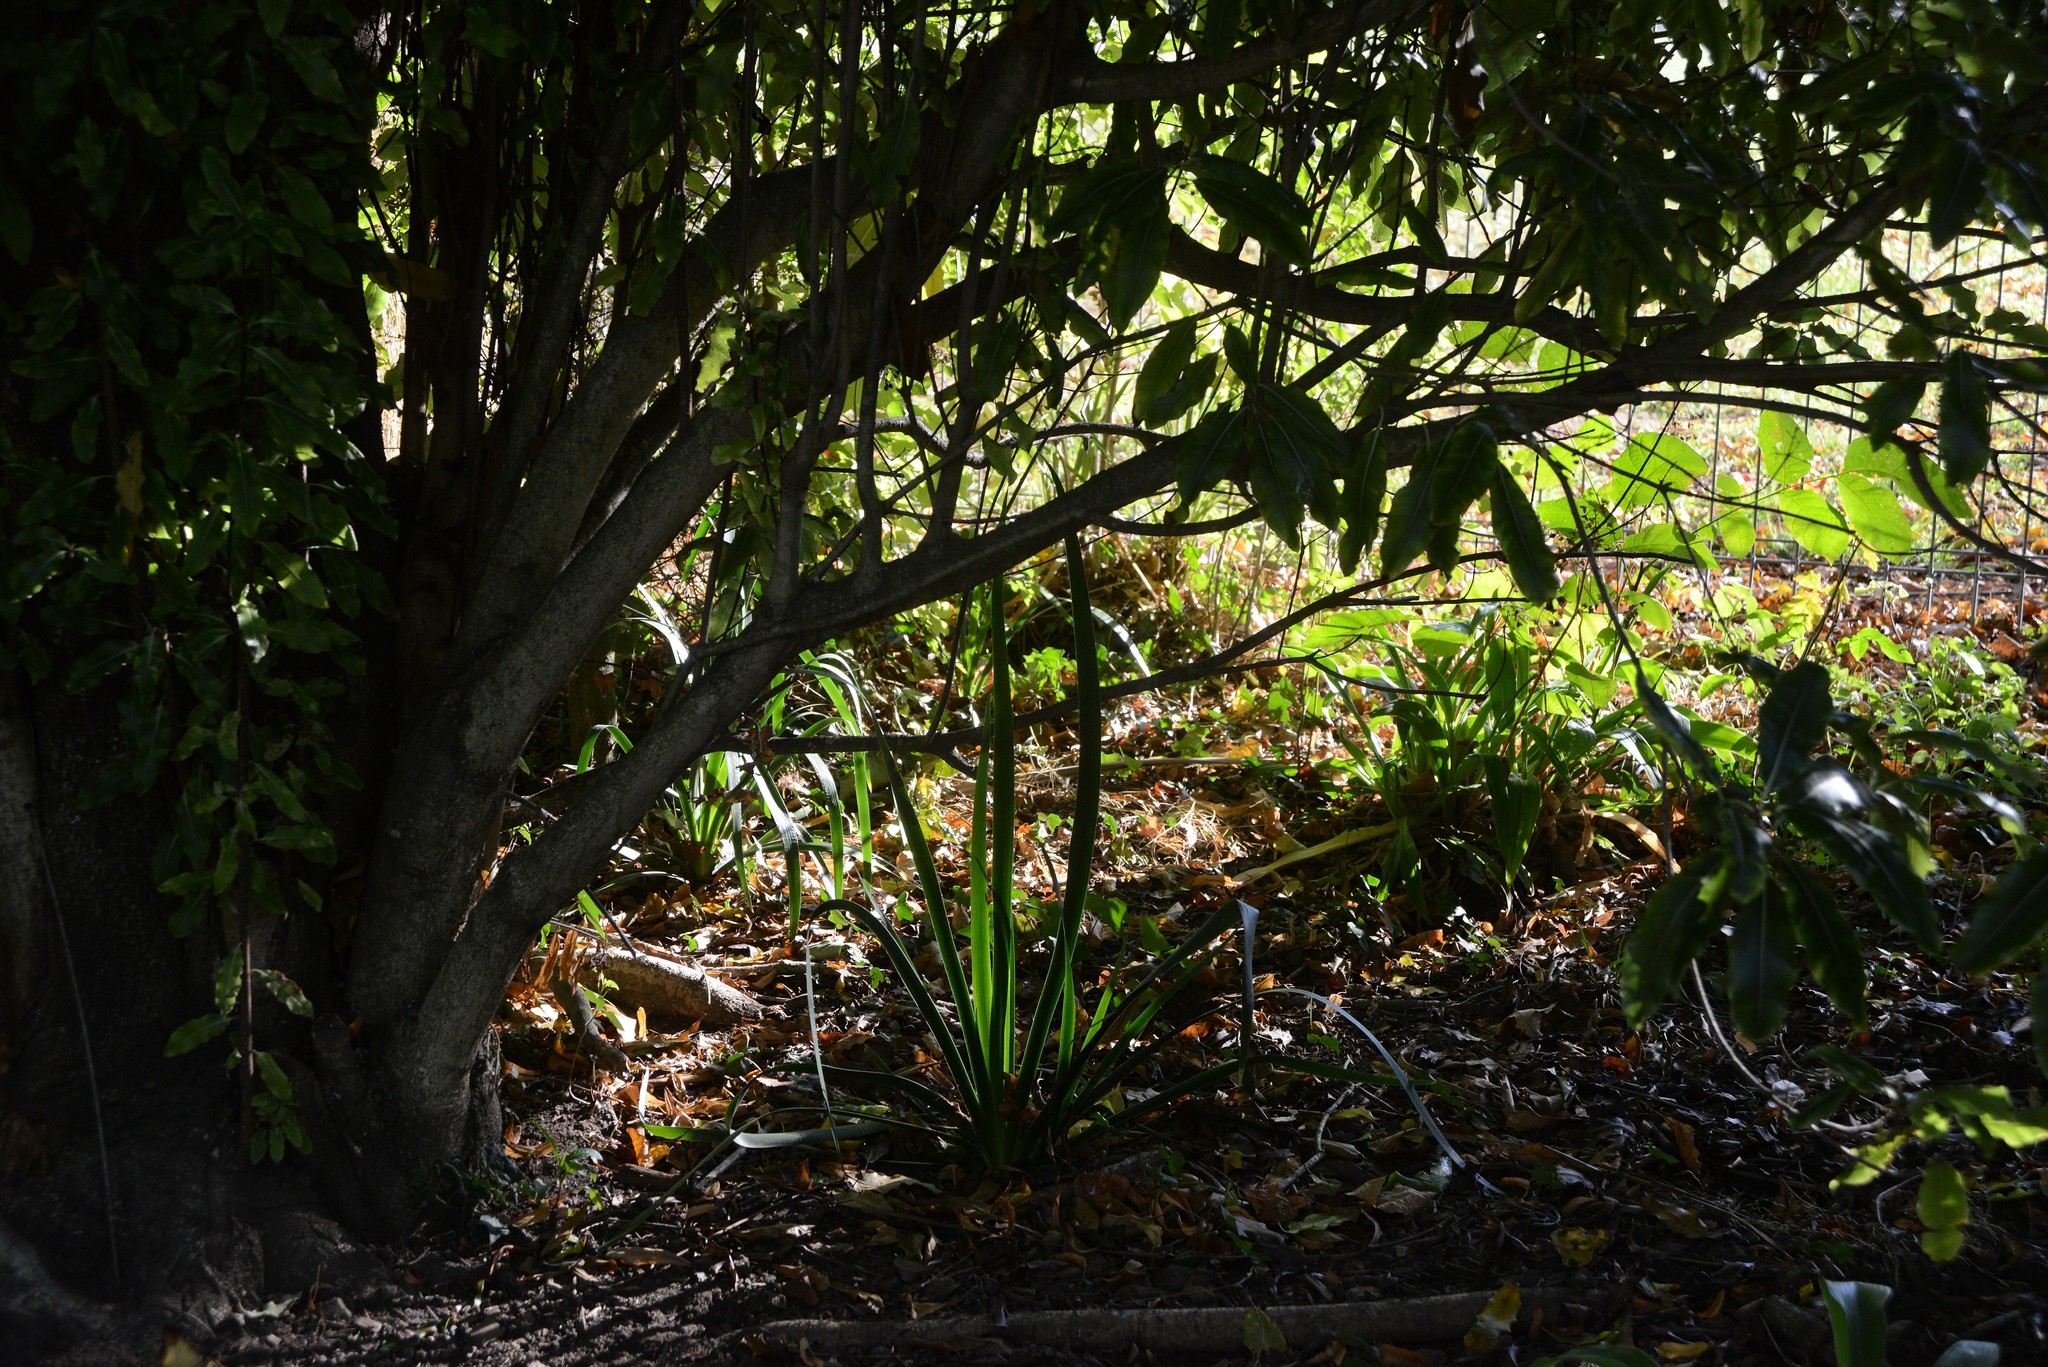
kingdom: Plantae
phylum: Tracheophyta
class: Liliopsida
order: Asparagales
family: Iridaceae
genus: Iris
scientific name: Iris foetidissima
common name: Stinking iris
